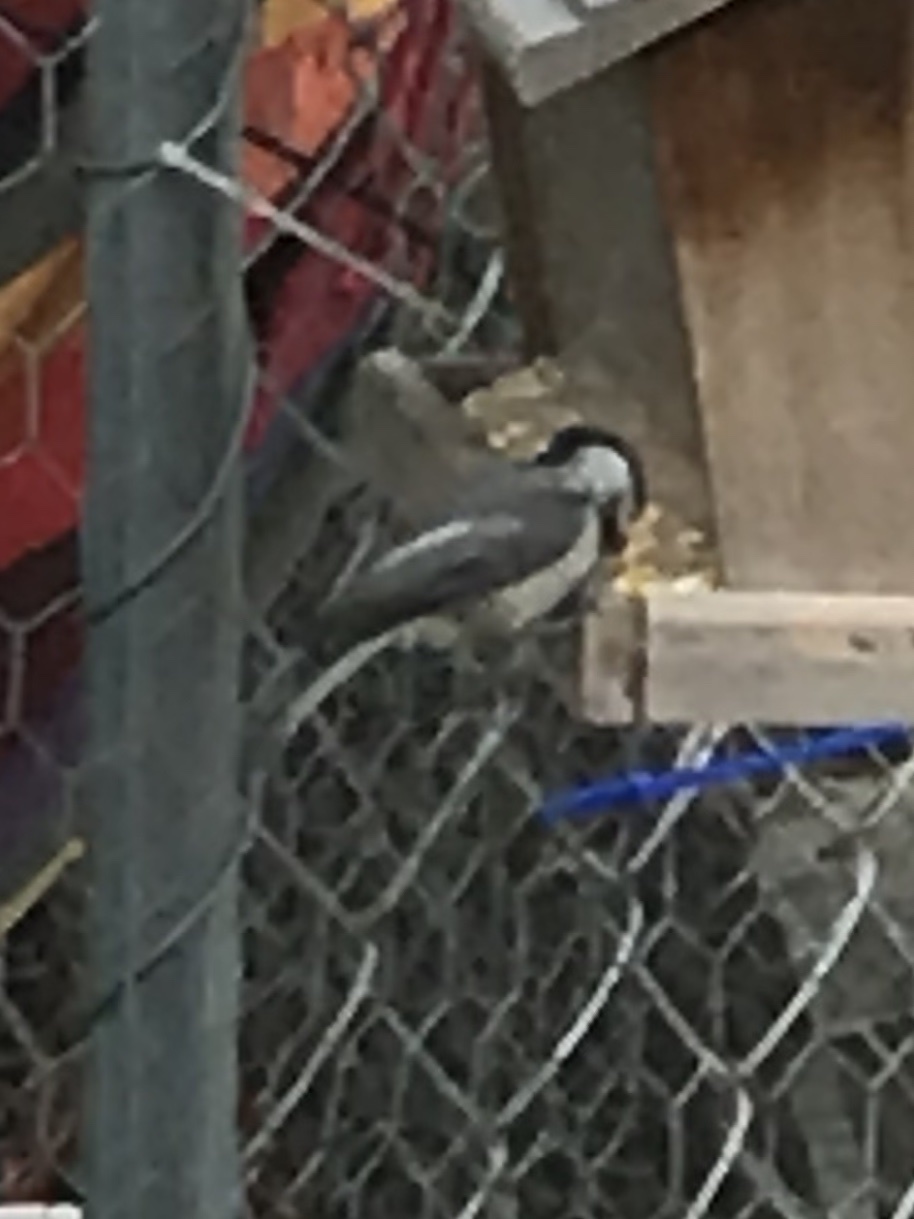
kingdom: Animalia
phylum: Chordata
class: Aves
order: Passeriformes
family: Paridae
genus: Poecile
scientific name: Poecile carolinensis
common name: Carolina chickadee
